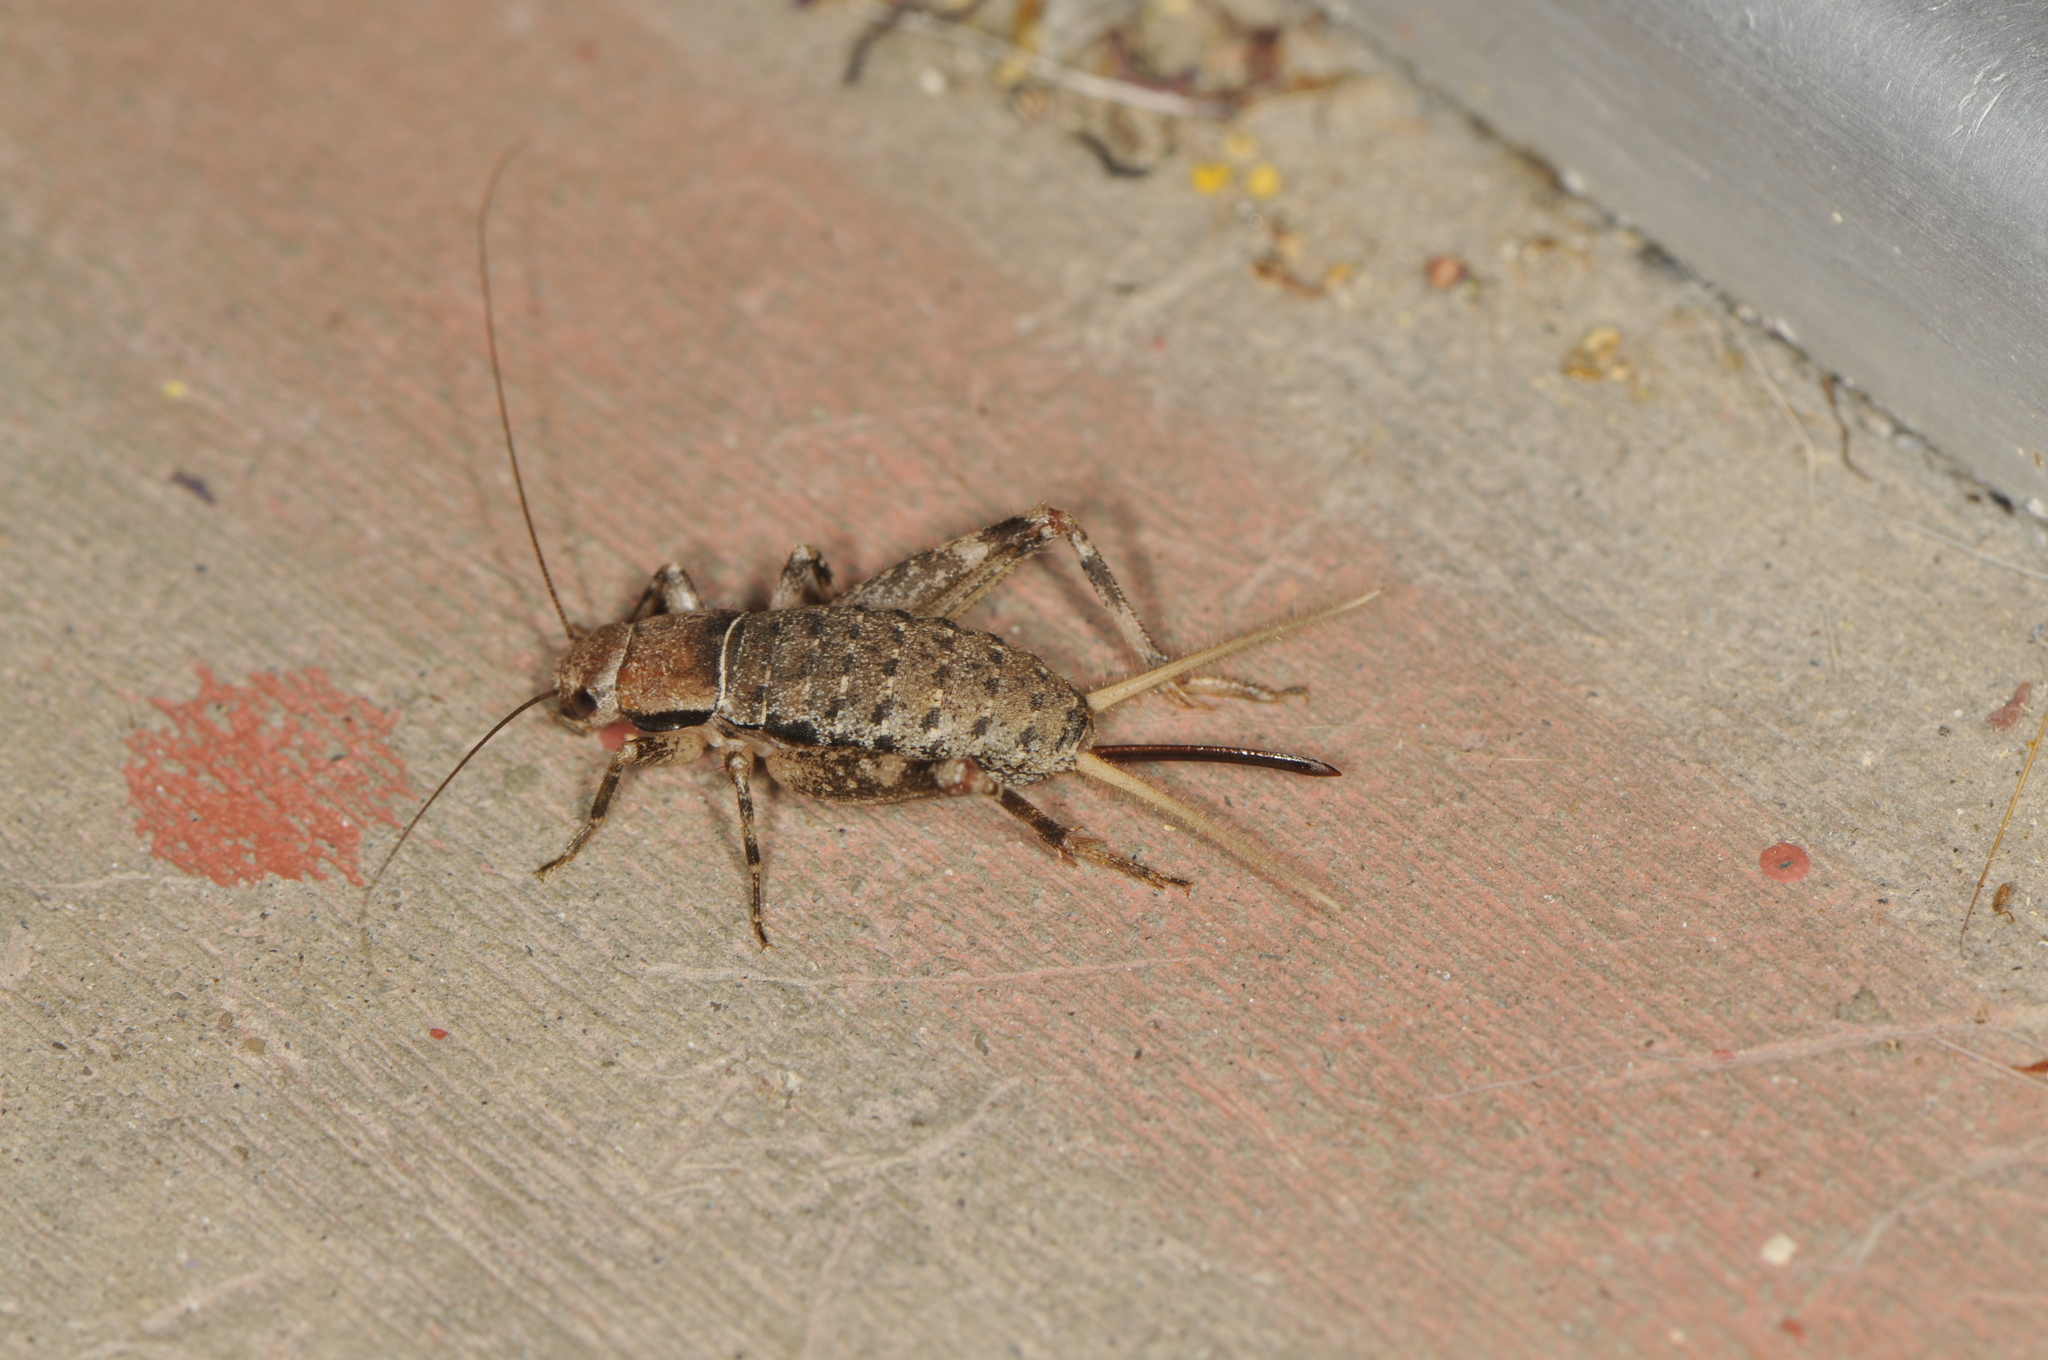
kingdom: Animalia
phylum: Arthropoda
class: Insecta
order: Orthoptera
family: Mogoplistidae
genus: Hoplosphyrum
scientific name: Hoplosphyrum boreale
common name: Long-winged scaly cricket
